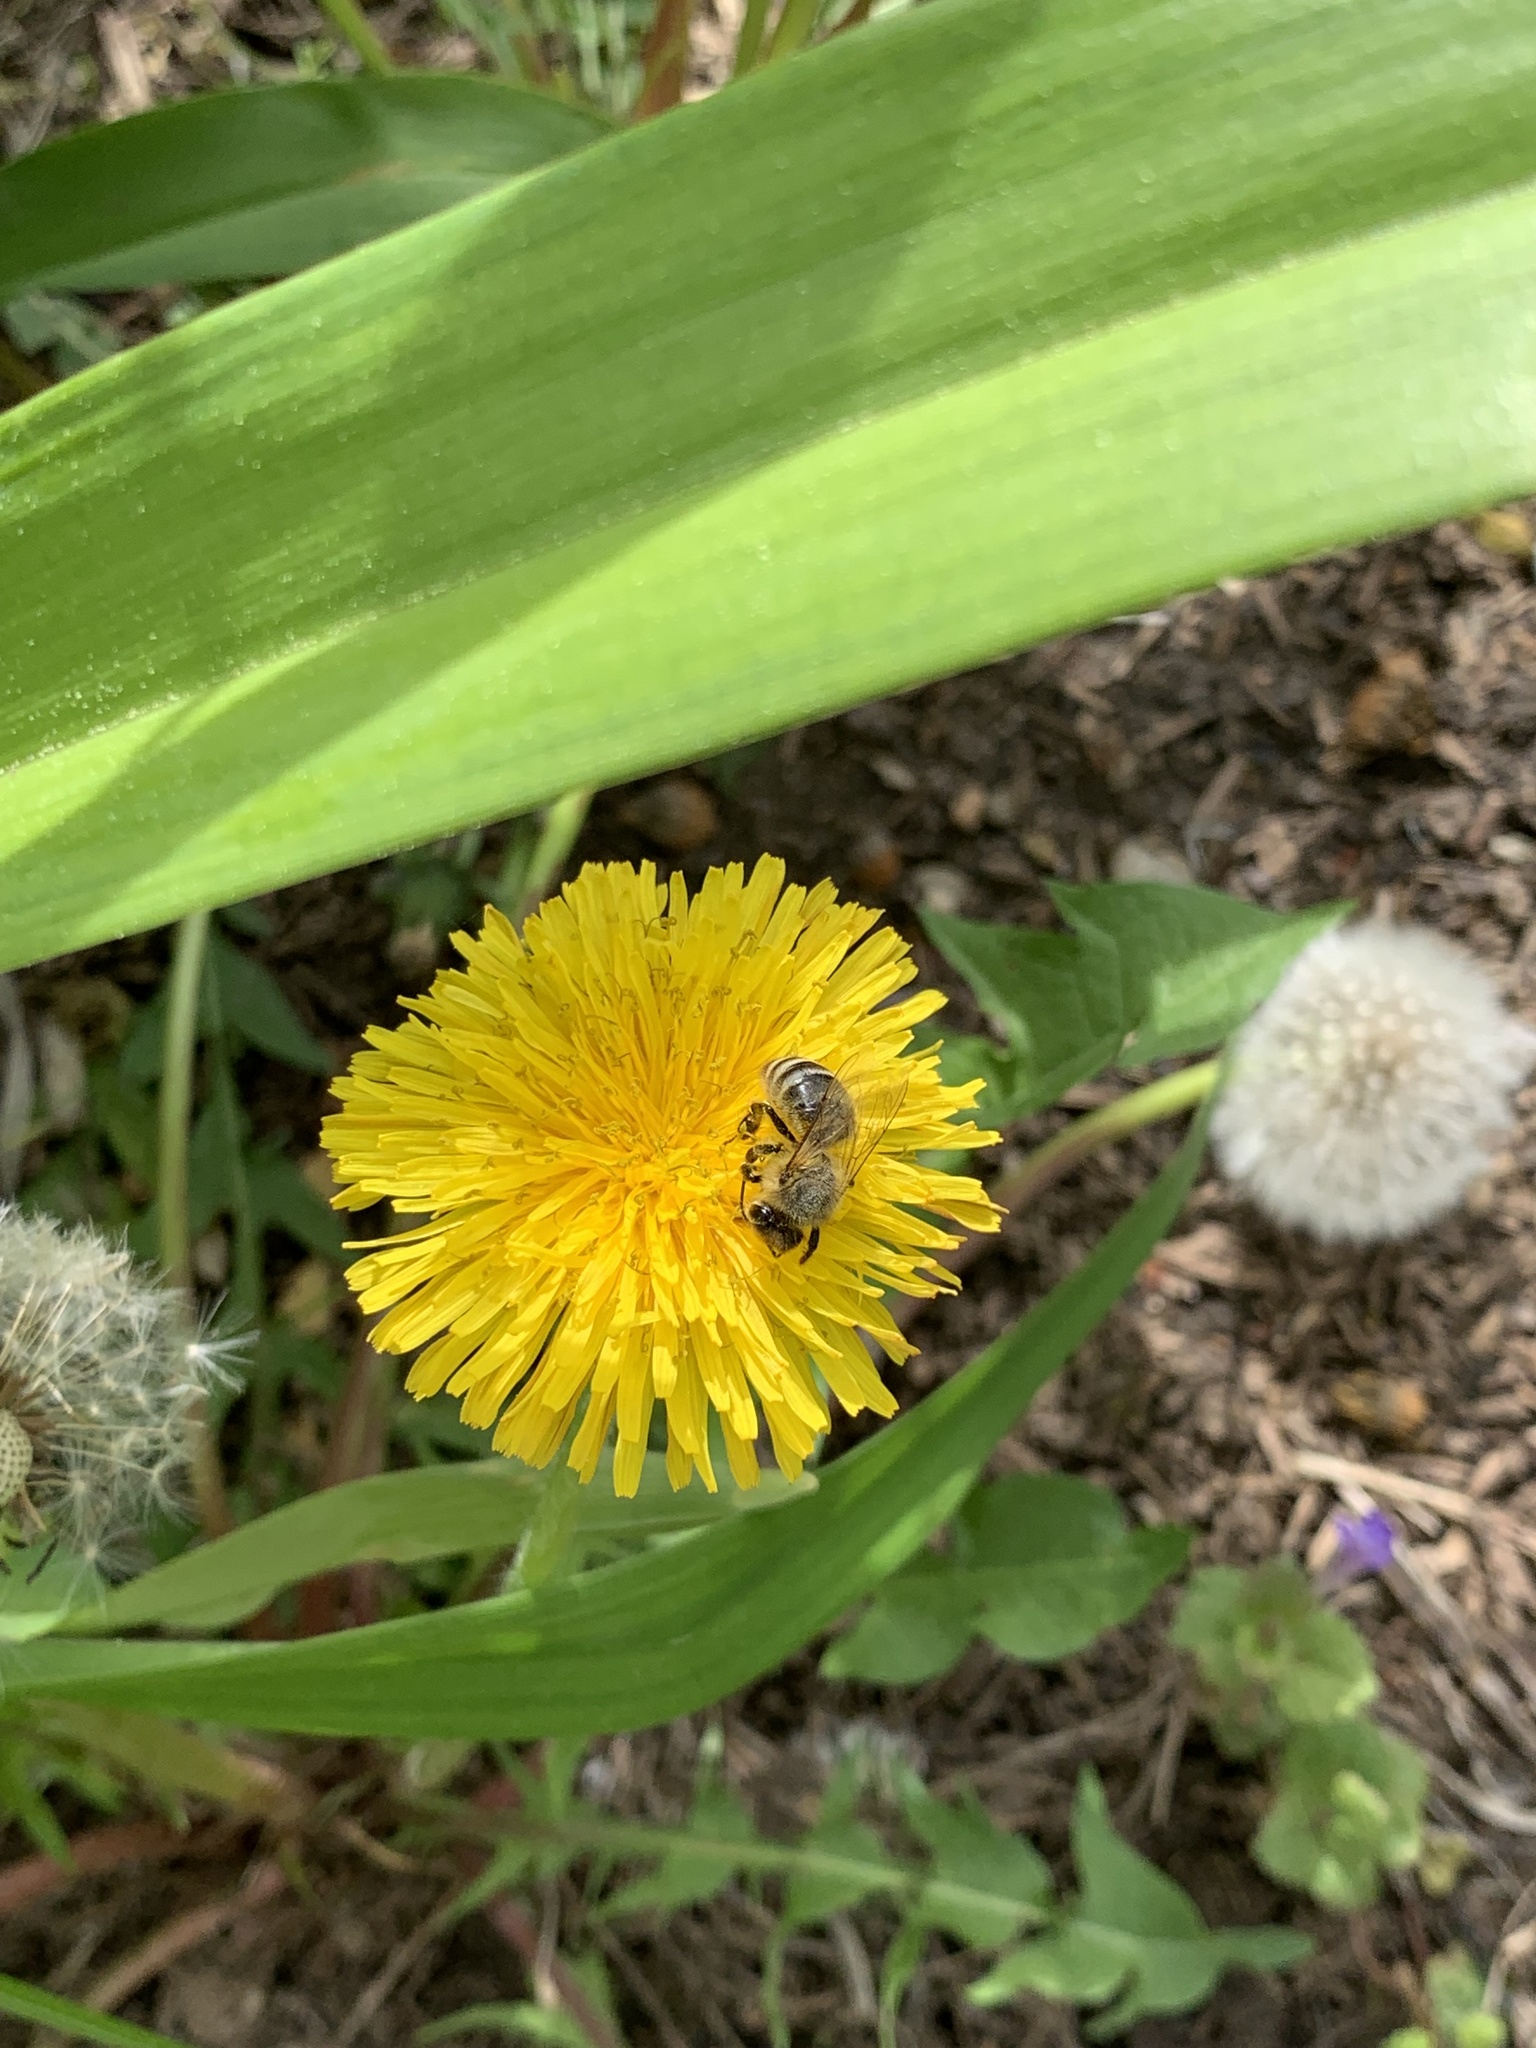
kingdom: Animalia
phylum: Arthropoda
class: Insecta
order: Hymenoptera
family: Apidae
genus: Apis
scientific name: Apis mellifera
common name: Honey bee
